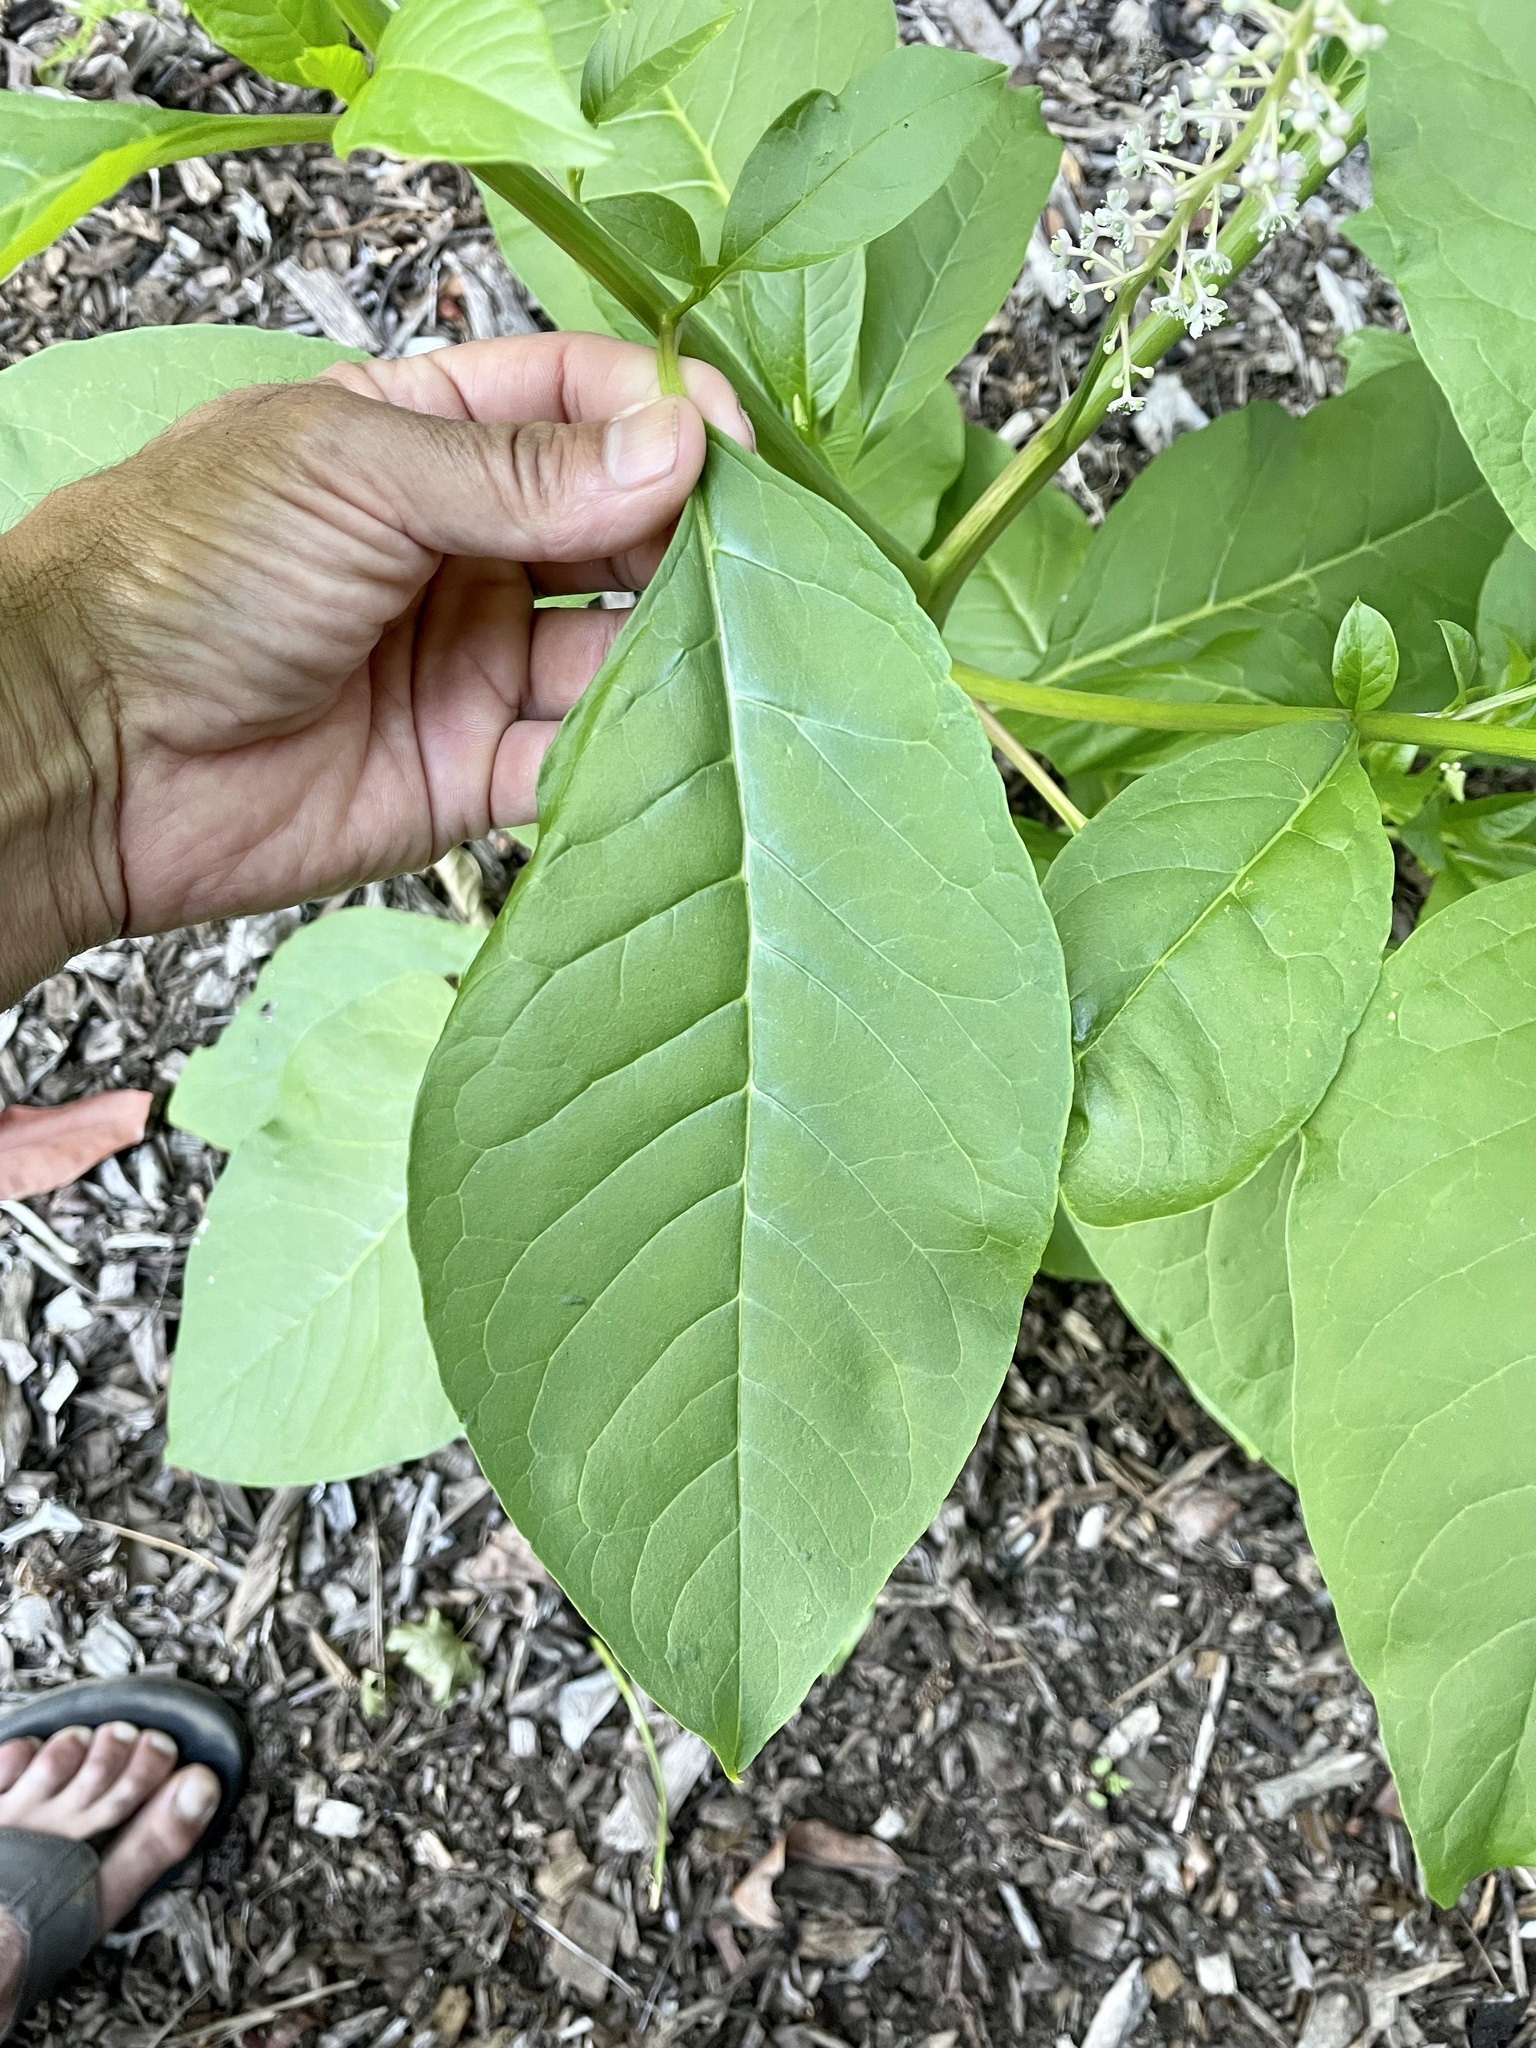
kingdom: Plantae
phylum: Tracheophyta
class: Magnoliopsida
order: Caryophyllales
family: Phytolaccaceae
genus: Phytolacca
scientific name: Phytolacca americana
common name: American pokeweed
